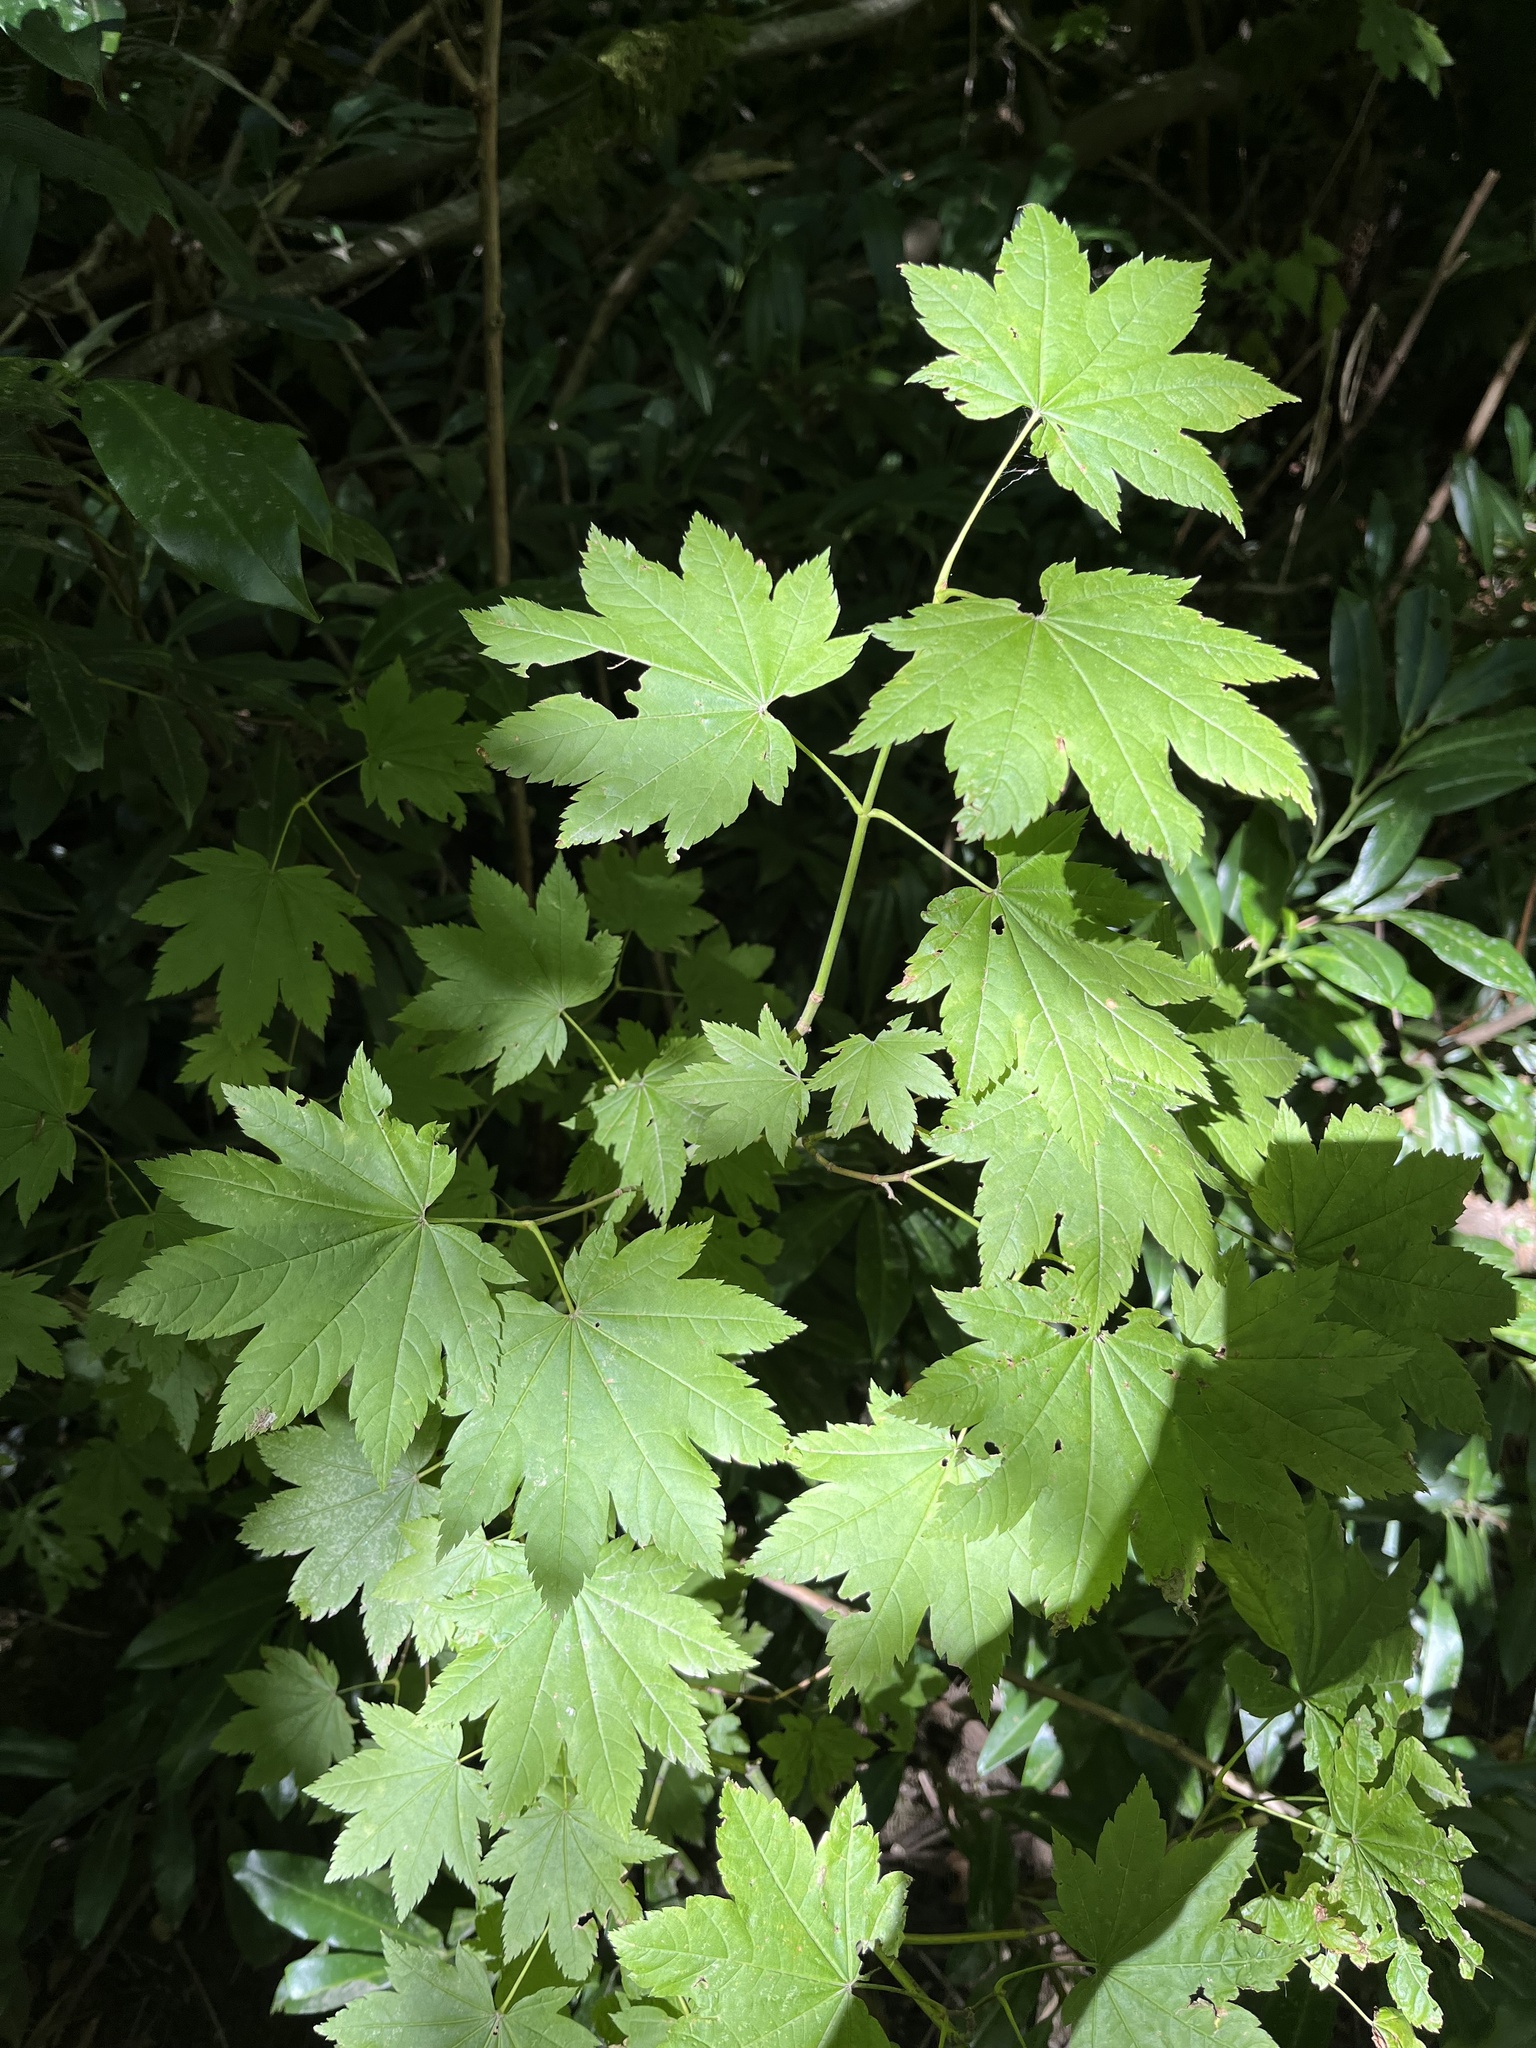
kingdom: Plantae
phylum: Tracheophyta
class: Magnoliopsida
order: Sapindales
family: Sapindaceae
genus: Acer
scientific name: Acer circinatum
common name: Vine maple
